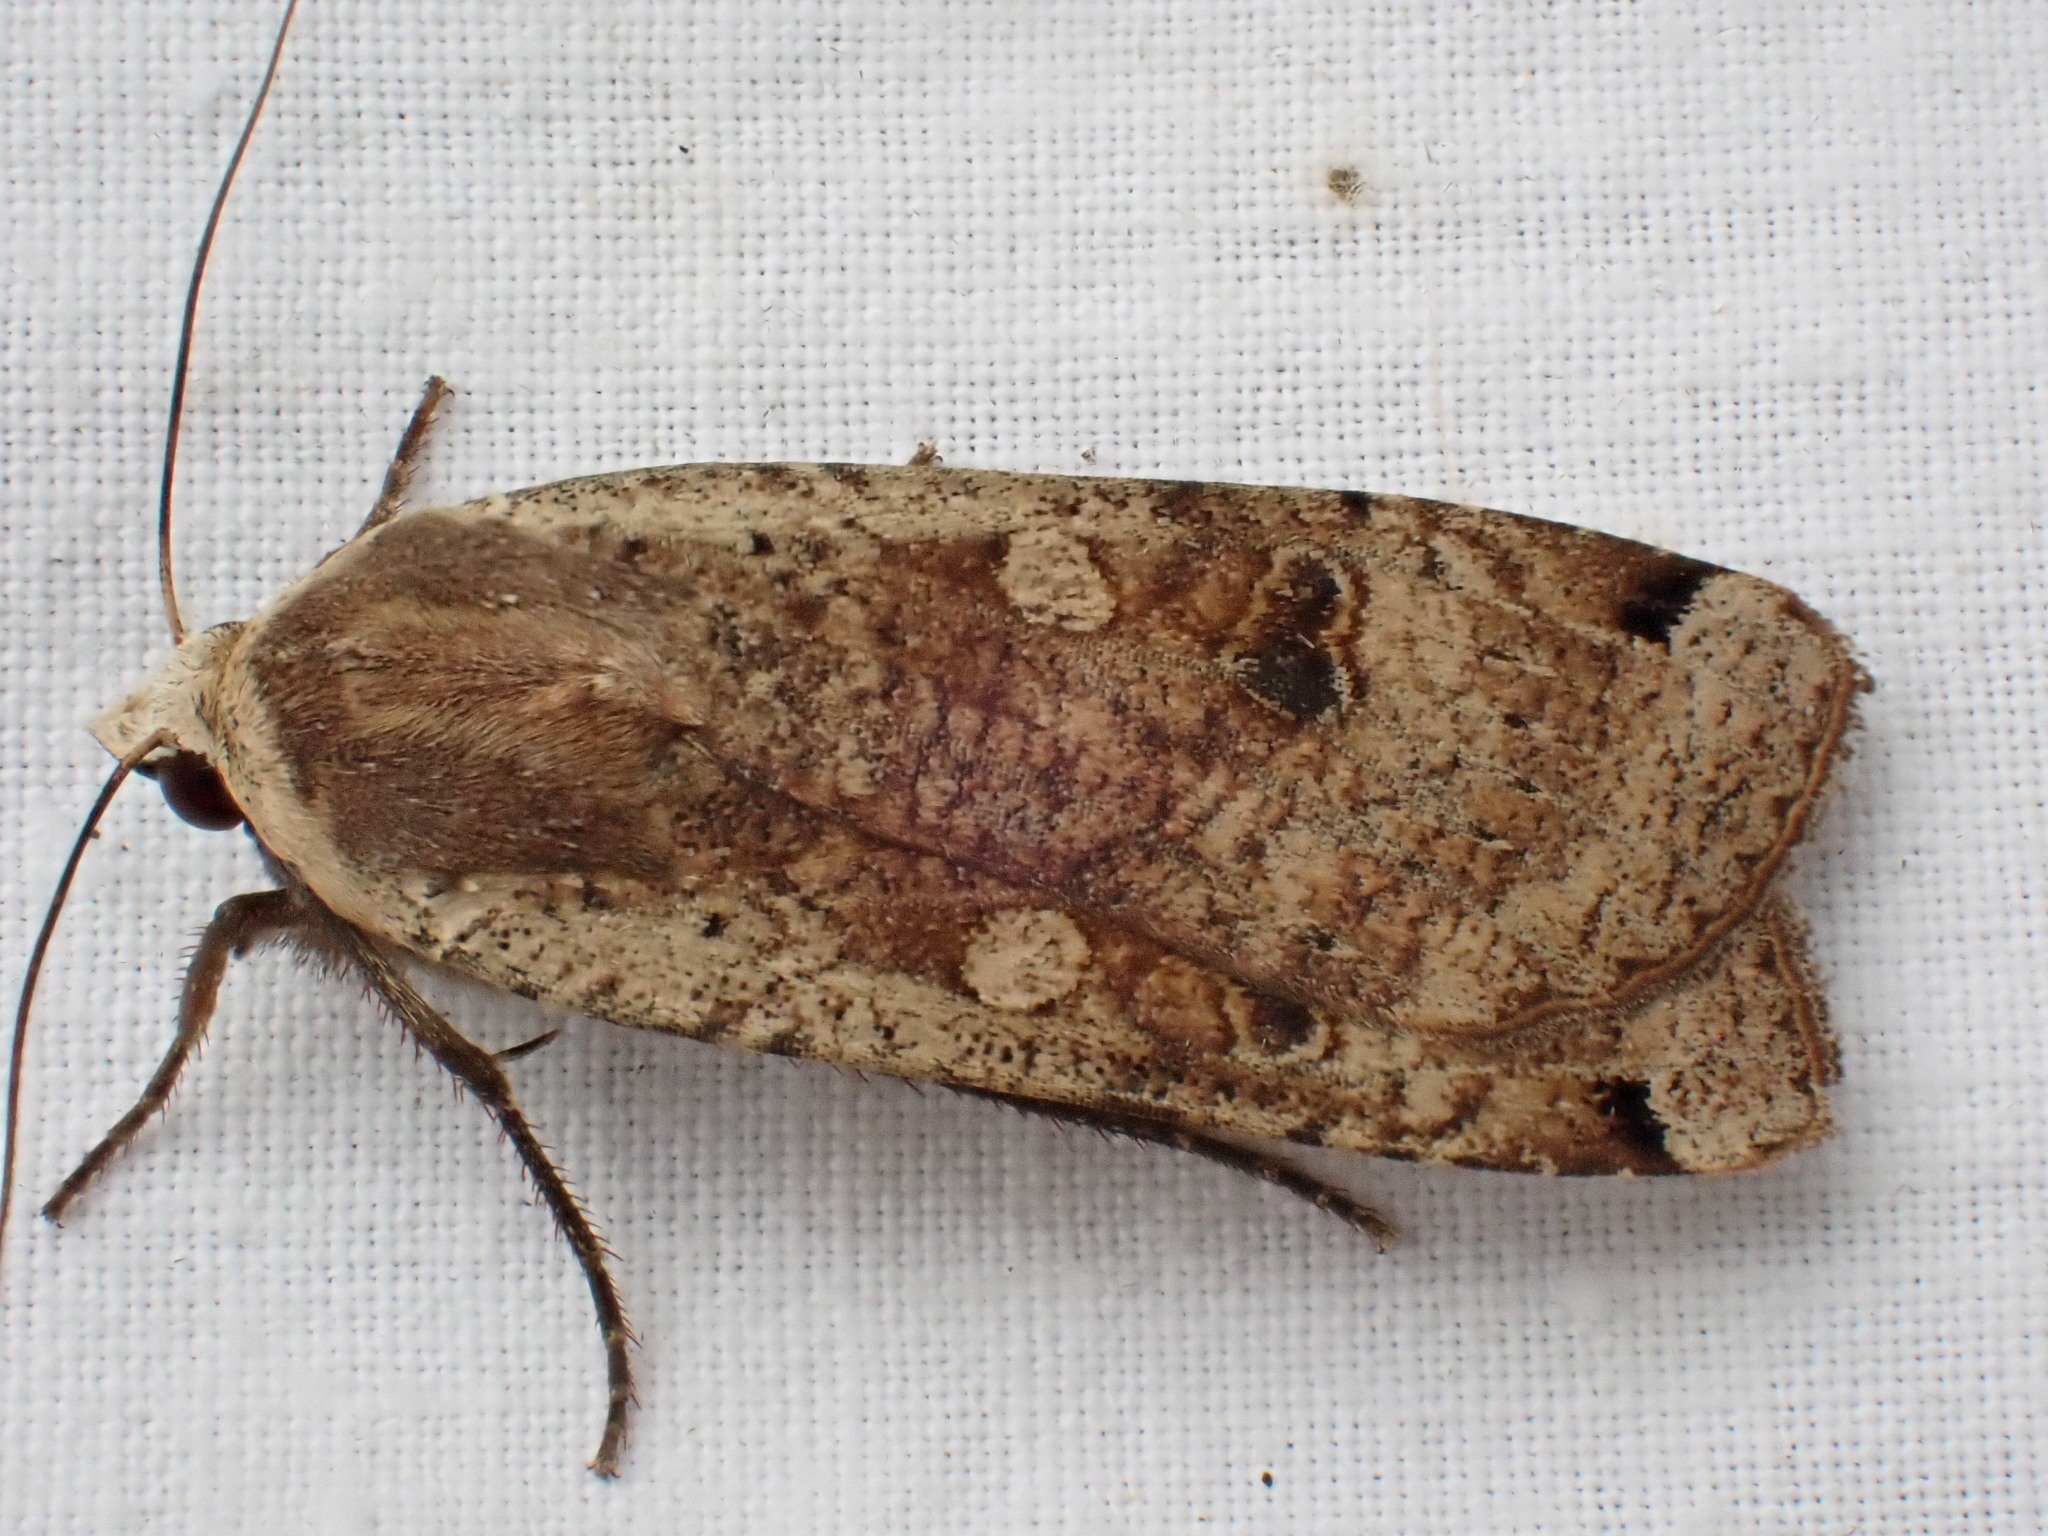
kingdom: Animalia
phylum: Arthropoda
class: Insecta
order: Lepidoptera
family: Noctuidae
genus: Noctua
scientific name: Noctua pronuba
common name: Large yellow underwing
